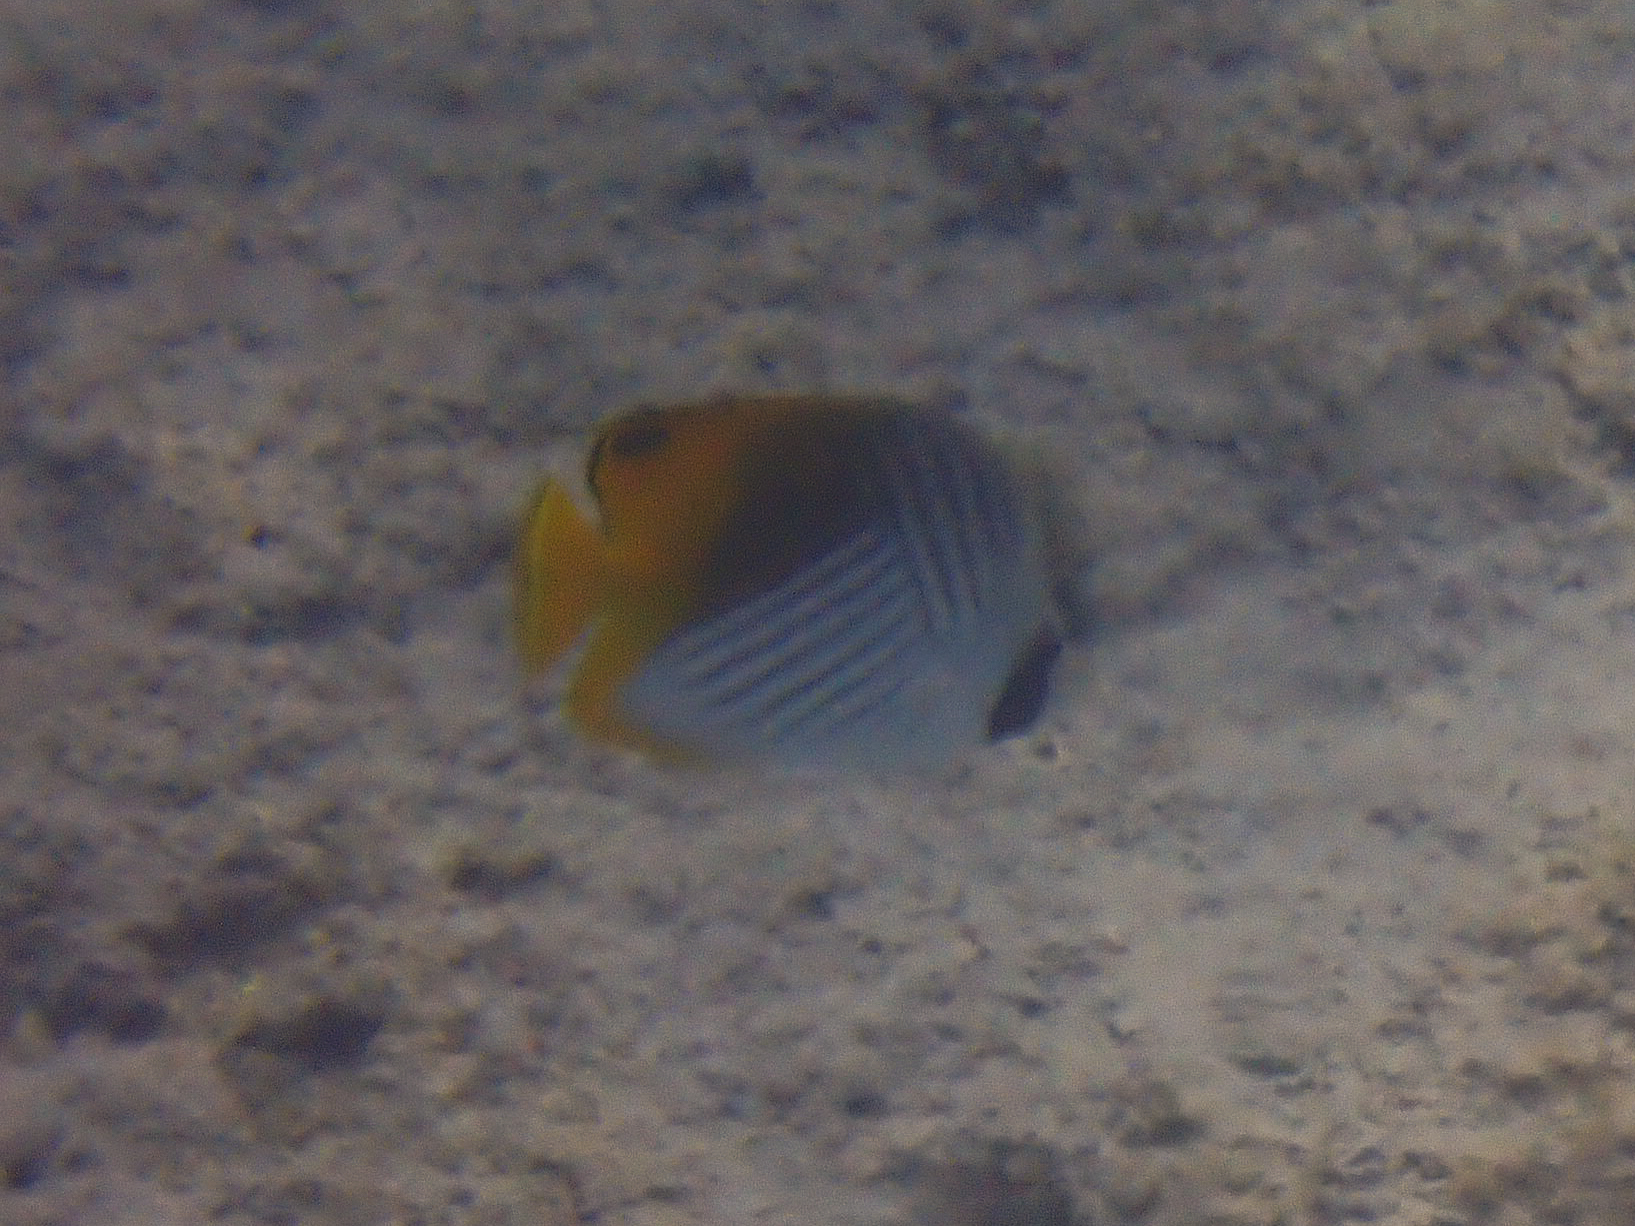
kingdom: Animalia
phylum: Chordata
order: Perciformes
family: Chaetodontidae
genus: Chaetodon
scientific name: Chaetodon auriga
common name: Threadfin butterflyfish
